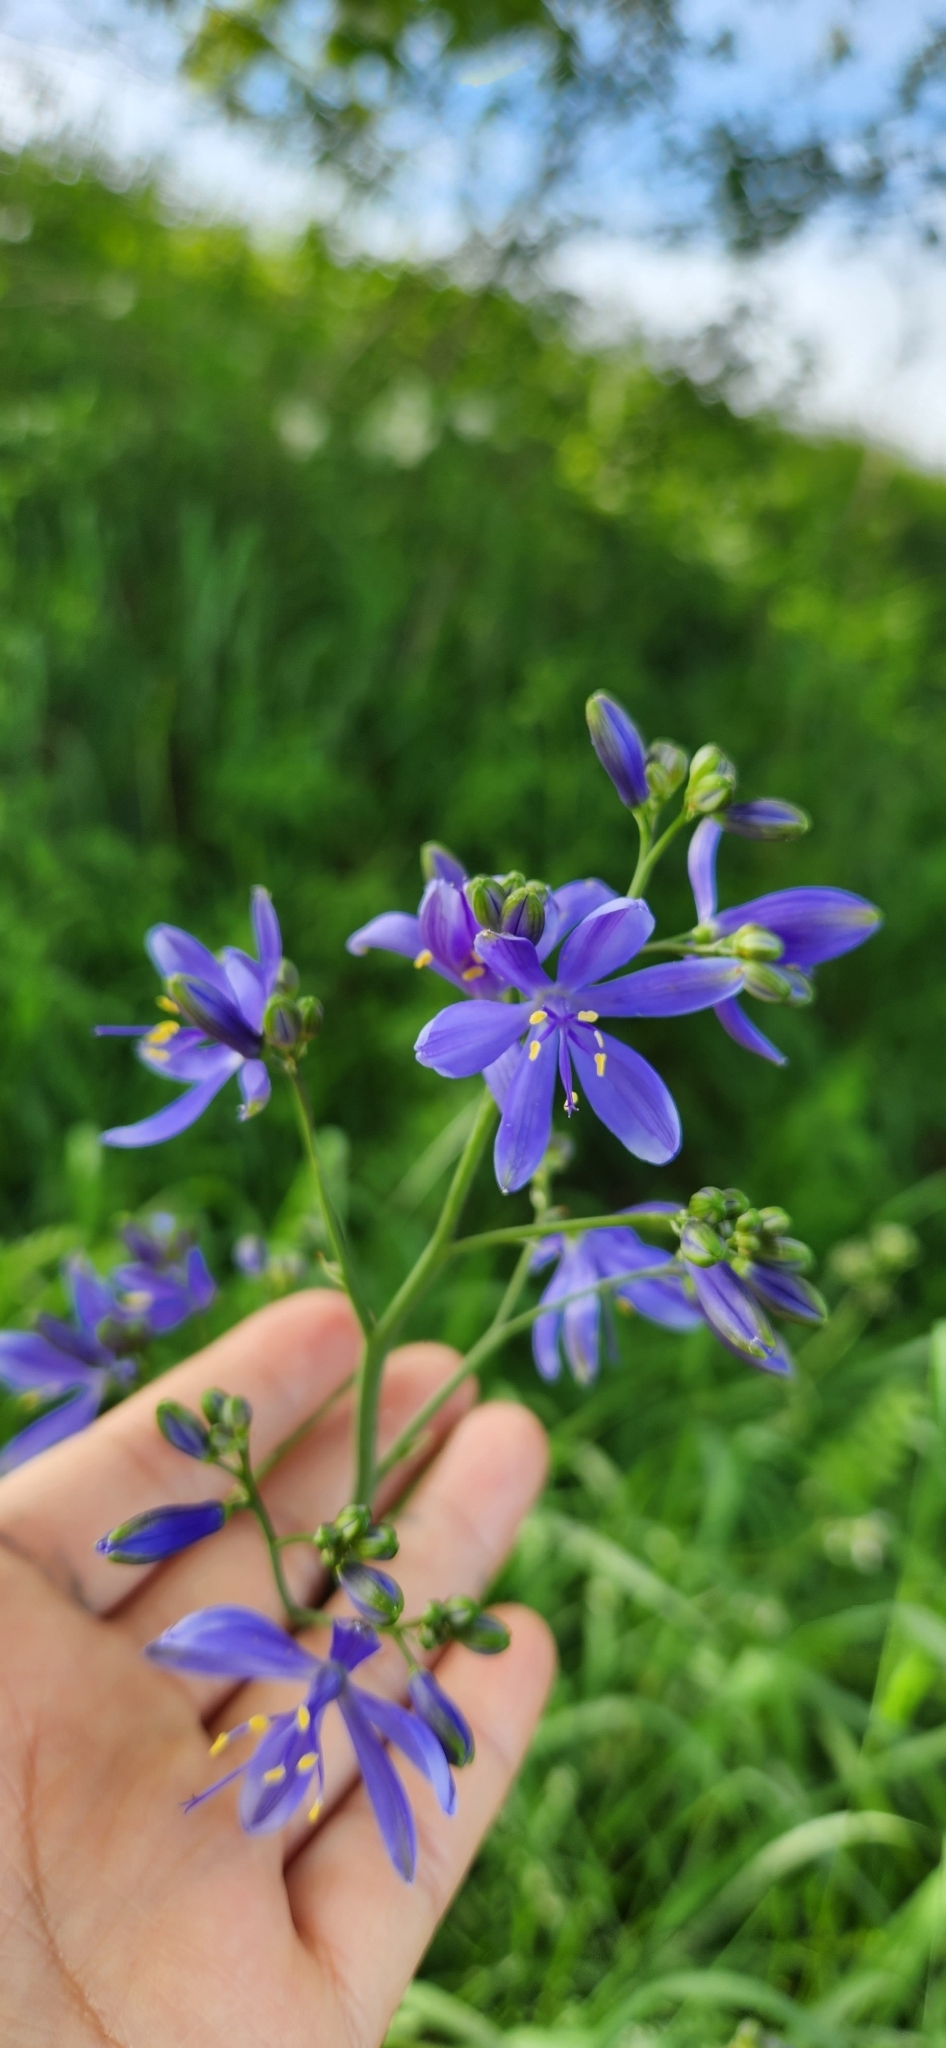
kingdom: Plantae
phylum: Tracheophyta
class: Liliopsida
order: Asparagales
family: Asphodelaceae
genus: Pasithea
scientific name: Pasithea caerulea
